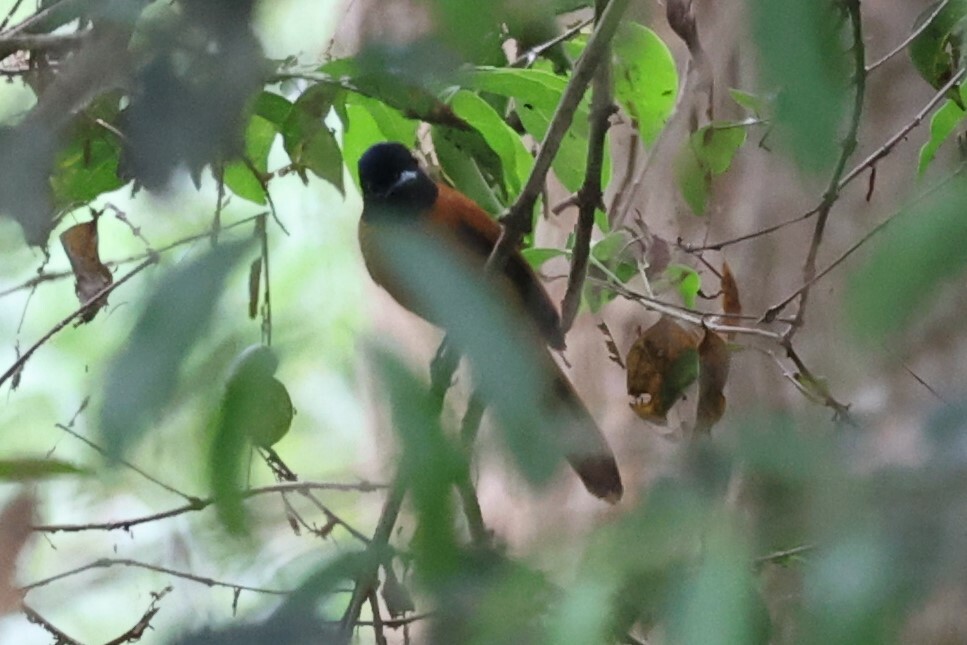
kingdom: Animalia
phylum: Chordata
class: Aves
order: Passeriformes
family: Monarchidae
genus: Terpsiphone
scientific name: Terpsiphone rufiventer
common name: Red-bellied paradise flycatcher
